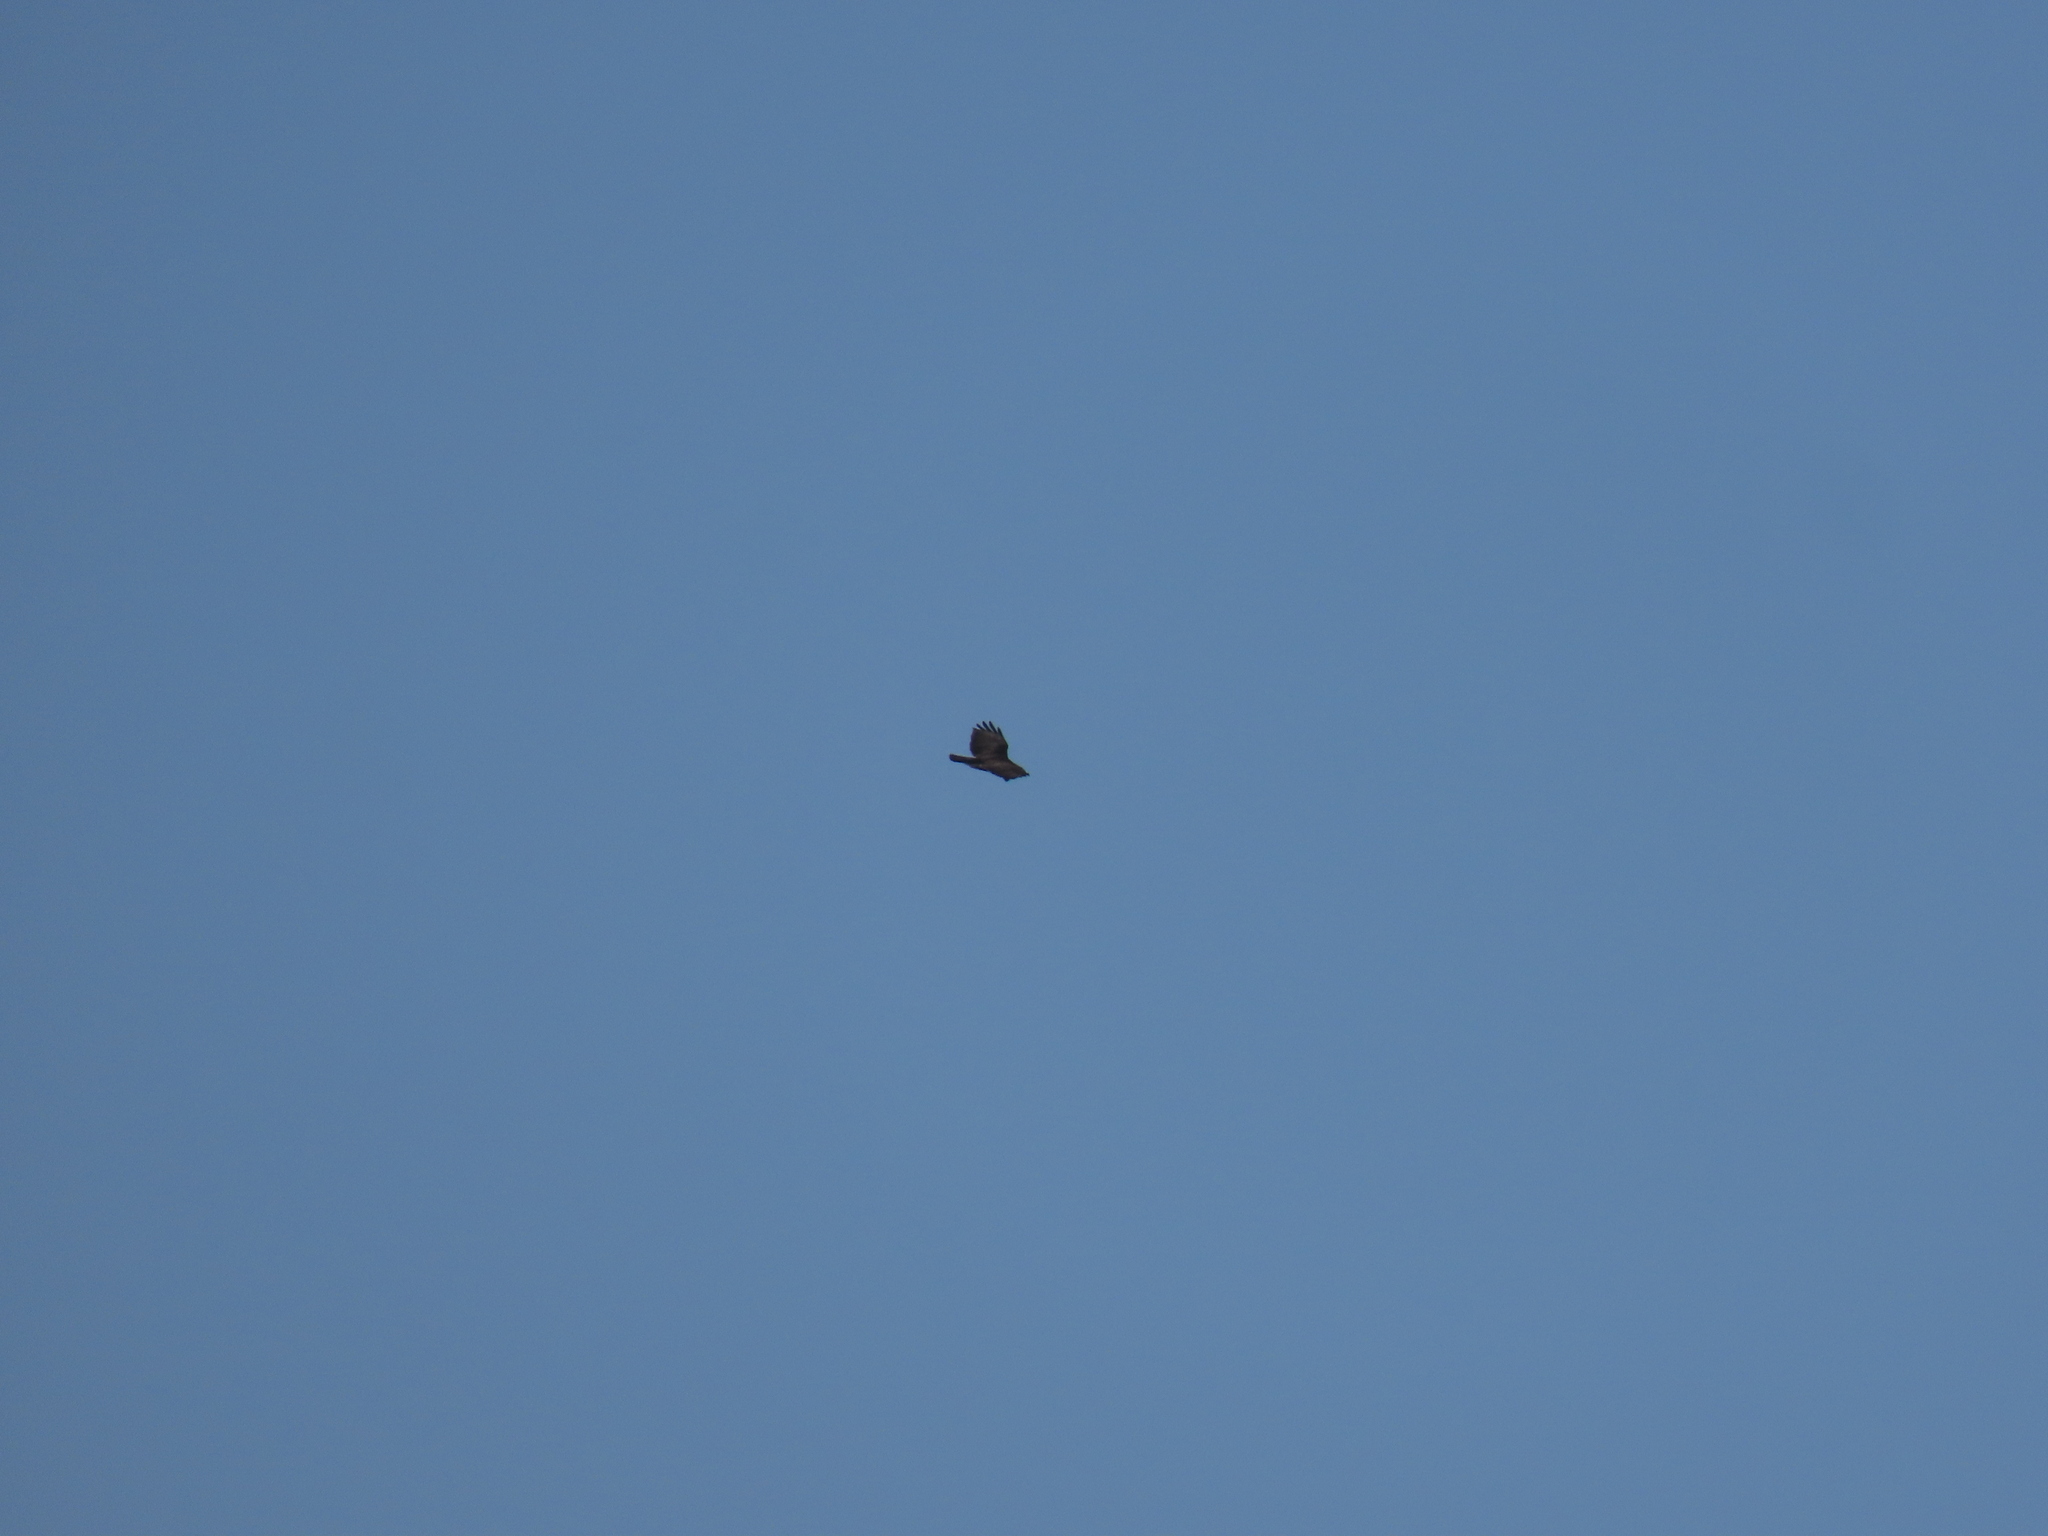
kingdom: Animalia
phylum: Chordata
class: Aves
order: Accipitriformes
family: Accipitridae
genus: Buteo
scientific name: Buteo buteo
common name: Common buzzard
